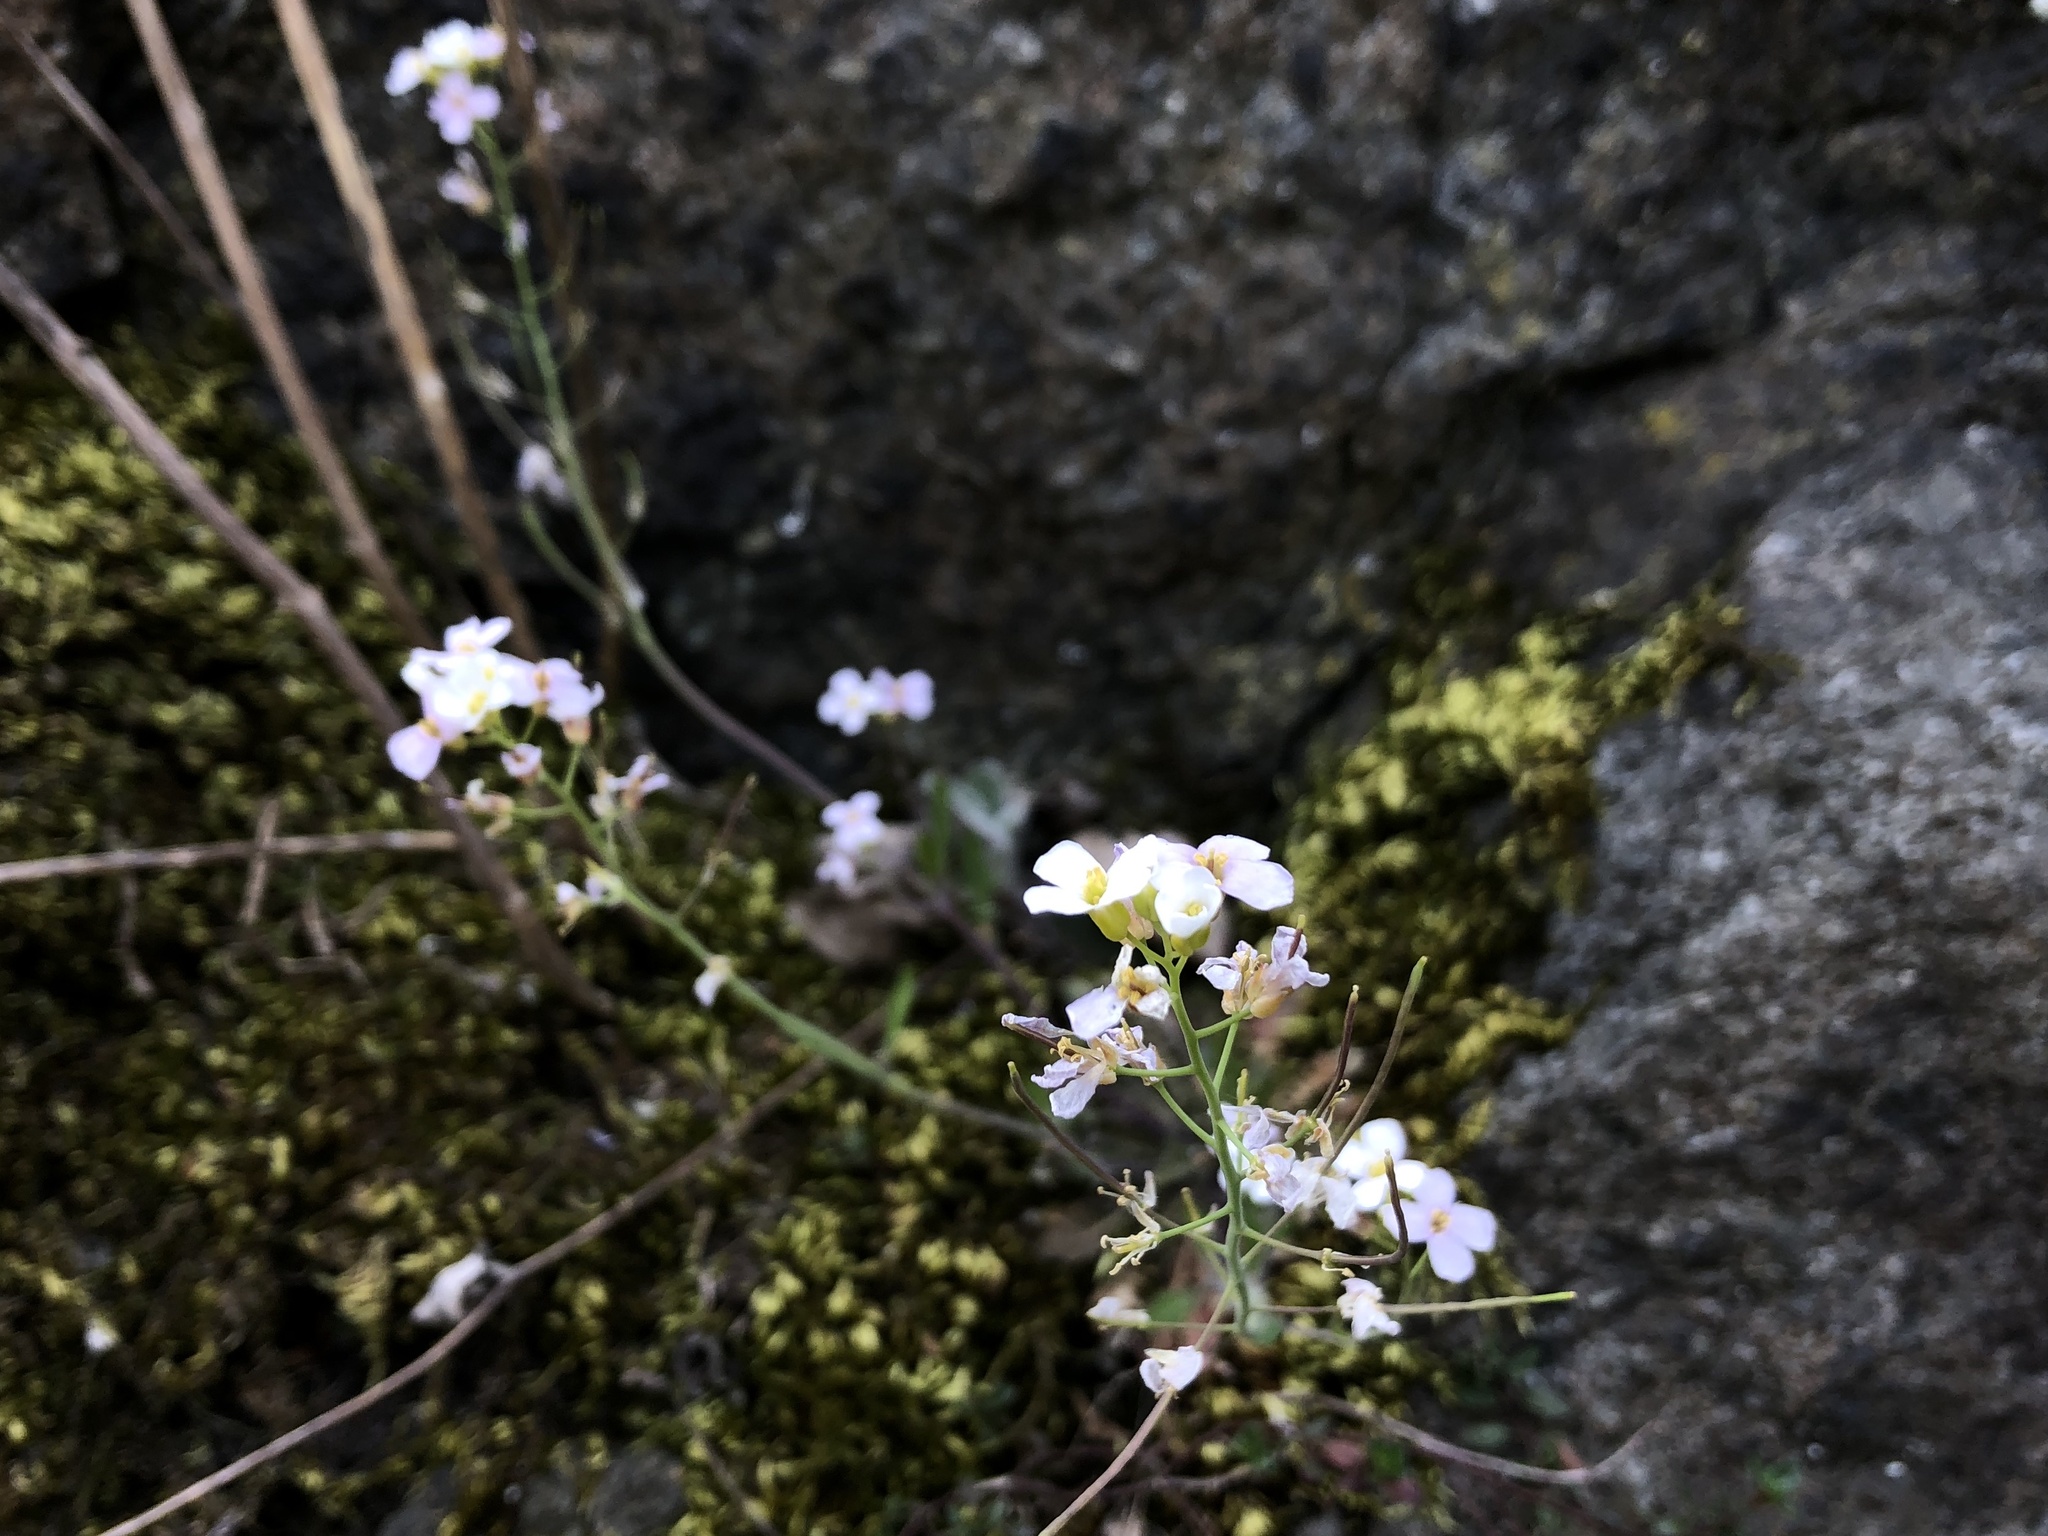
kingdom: Plantae
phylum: Tracheophyta
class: Magnoliopsida
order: Brassicales
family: Brassicaceae
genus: Arabidopsis
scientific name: Arabidopsis arenosa
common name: Sand rock-cress
